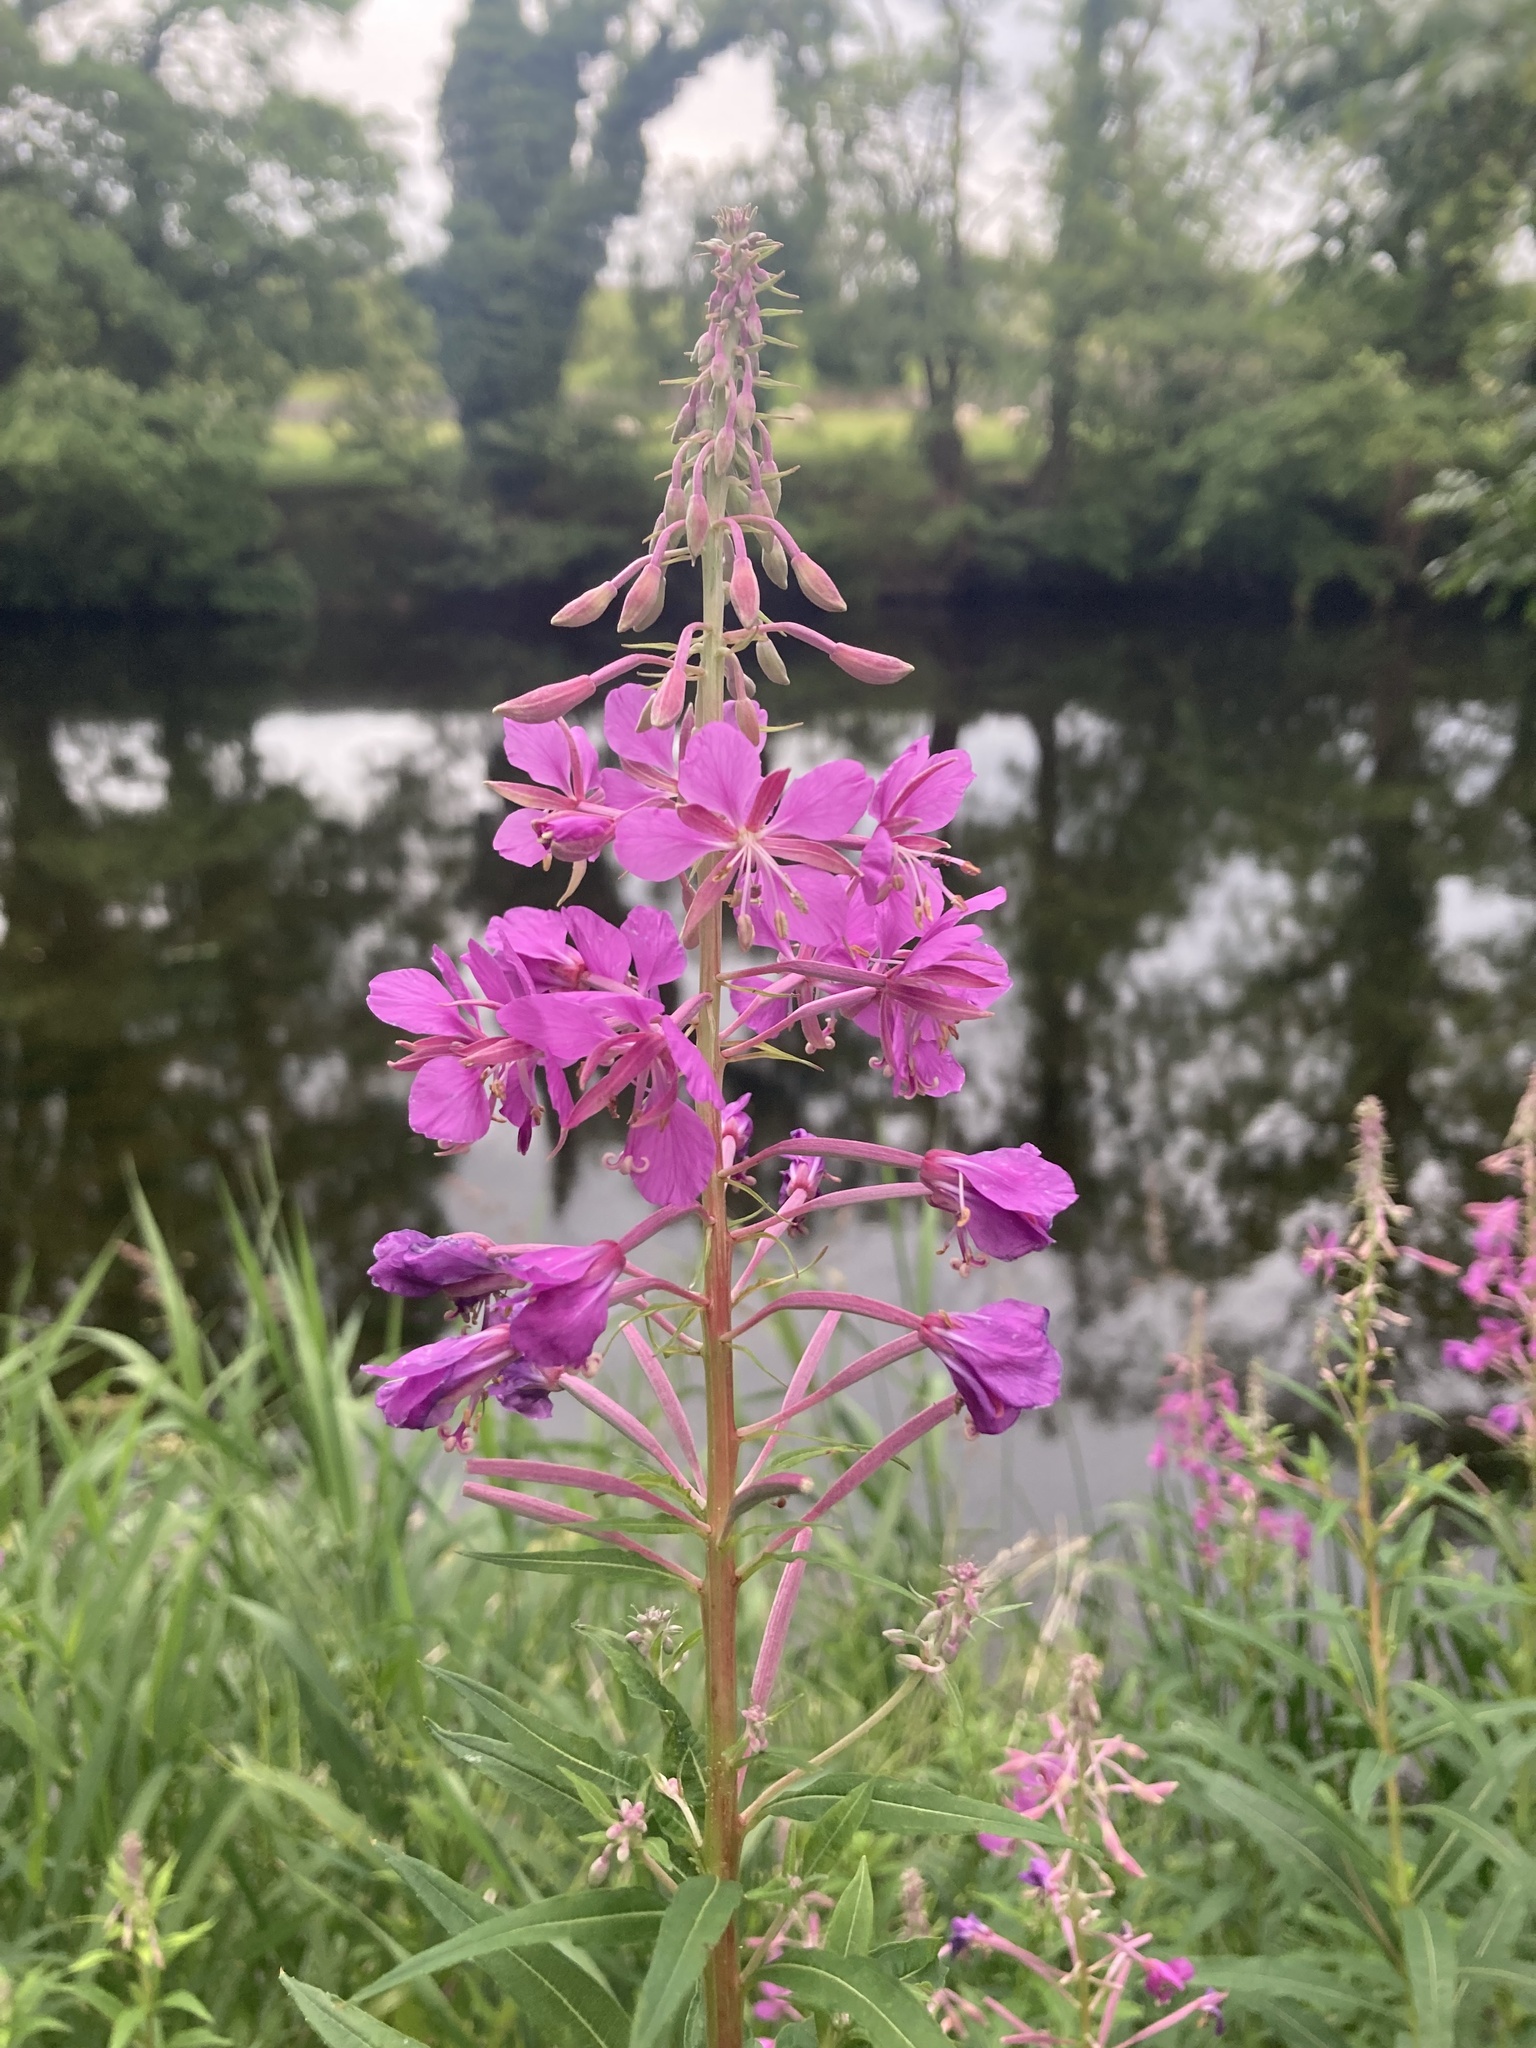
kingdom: Plantae
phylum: Tracheophyta
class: Magnoliopsida
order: Myrtales
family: Onagraceae
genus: Chamaenerion
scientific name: Chamaenerion angustifolium
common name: Fireweed
